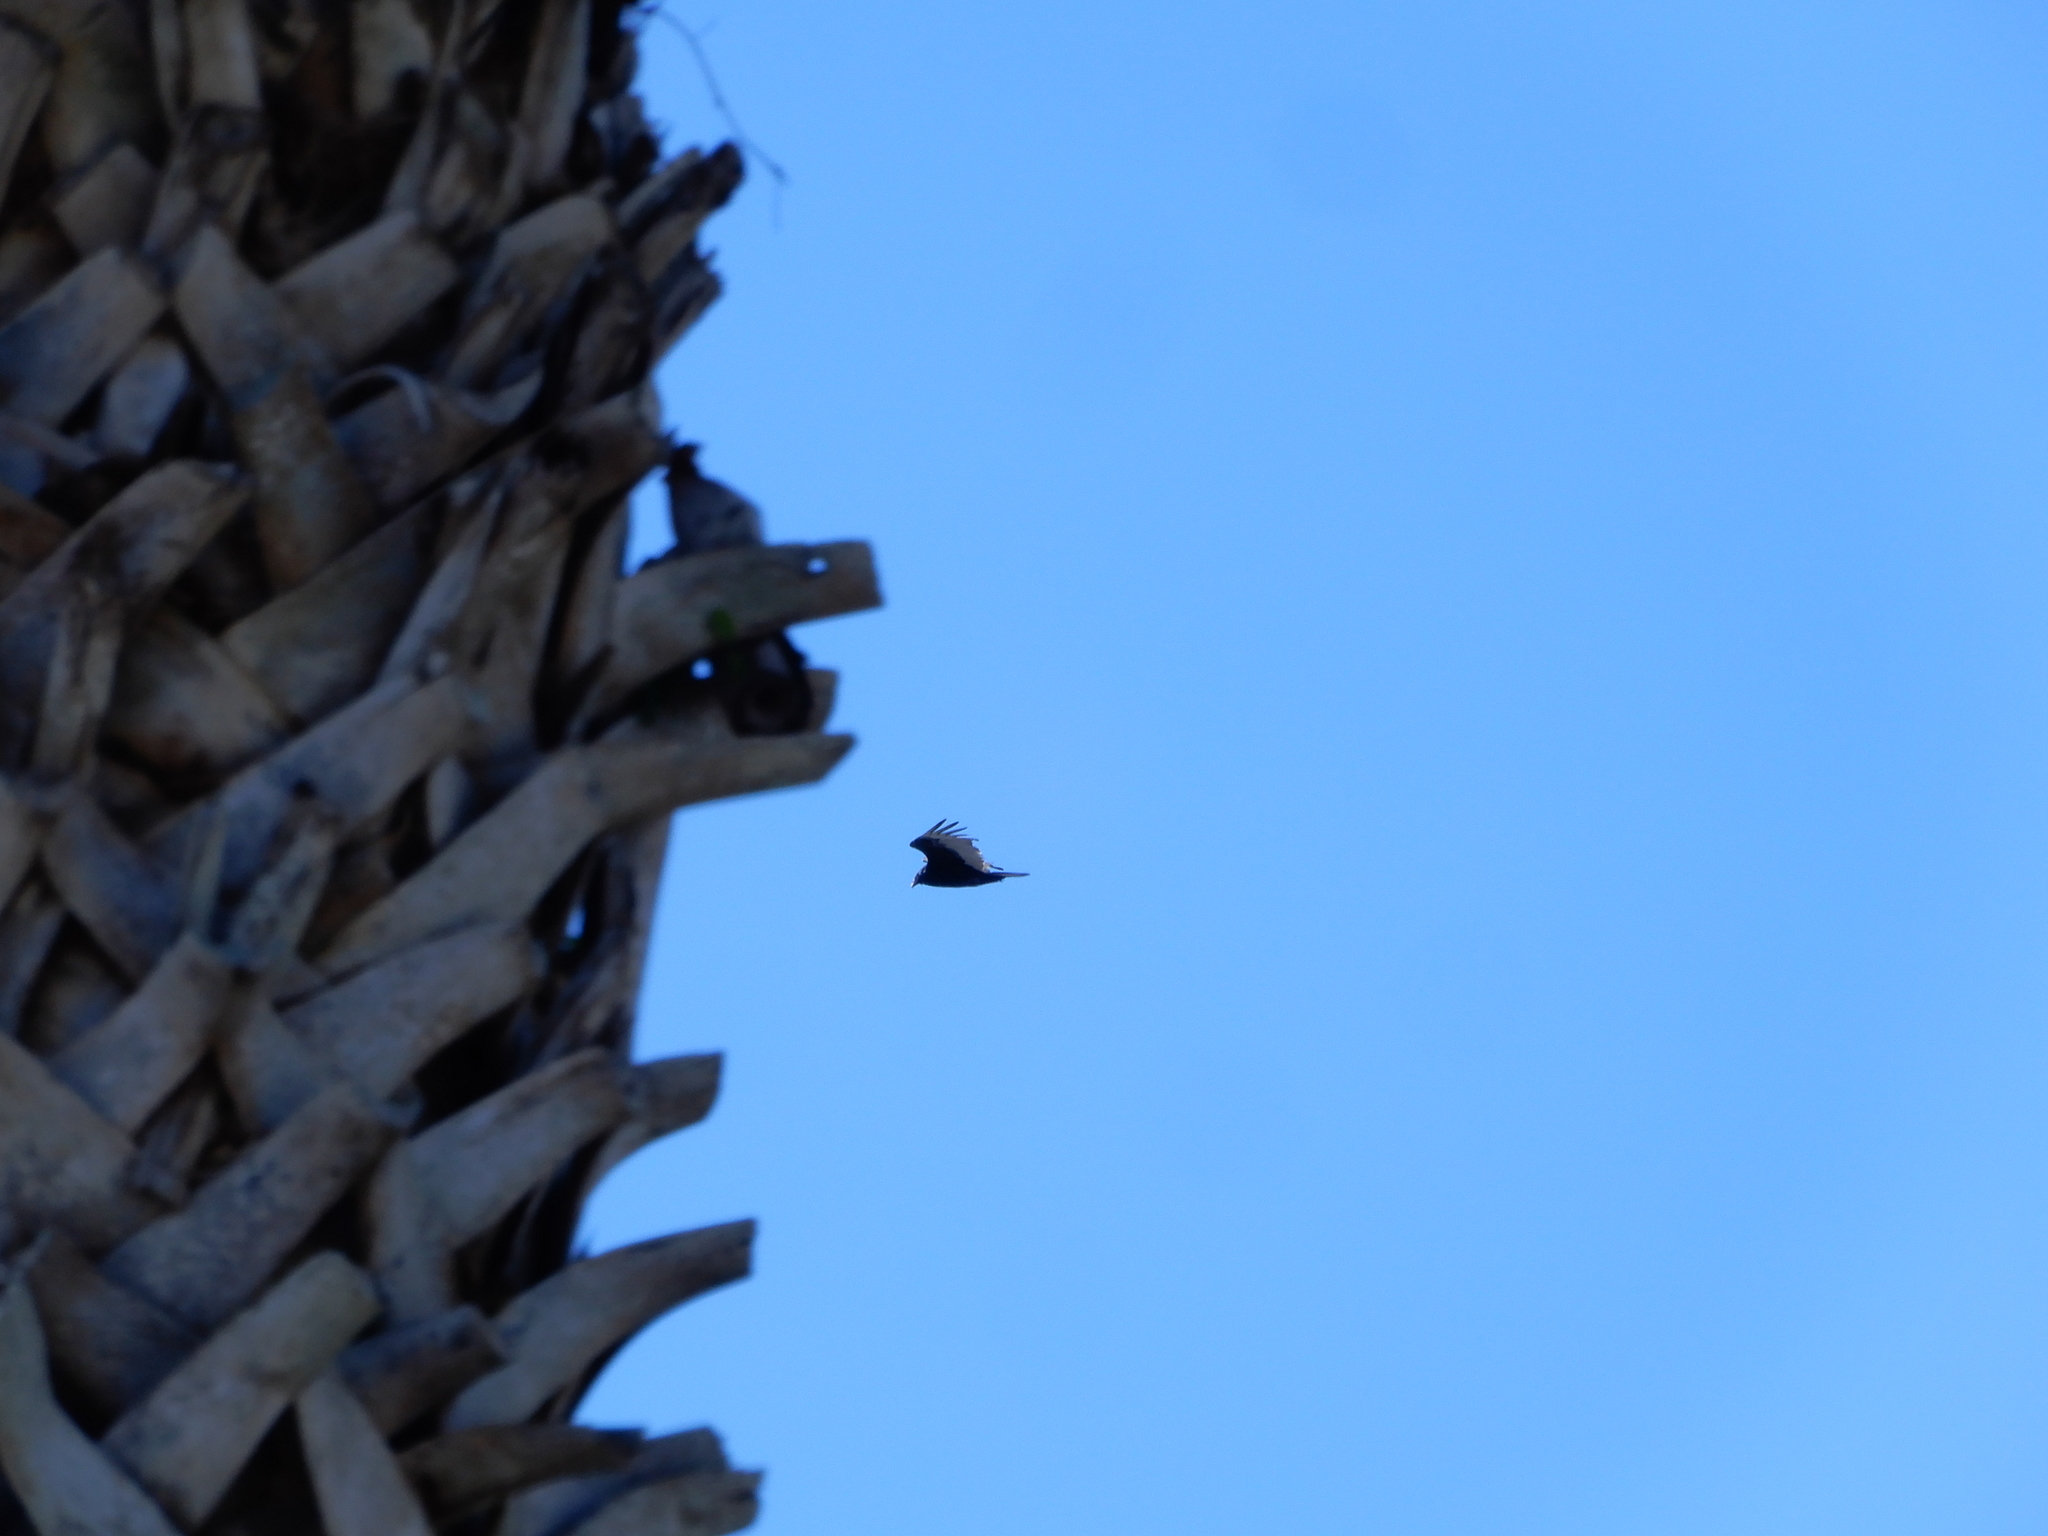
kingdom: Animalia
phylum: Chordata
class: Aves
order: Accipitriformes
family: Cathartidae
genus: Cathartes
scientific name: Cathartes aura
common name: Turkey vulture
